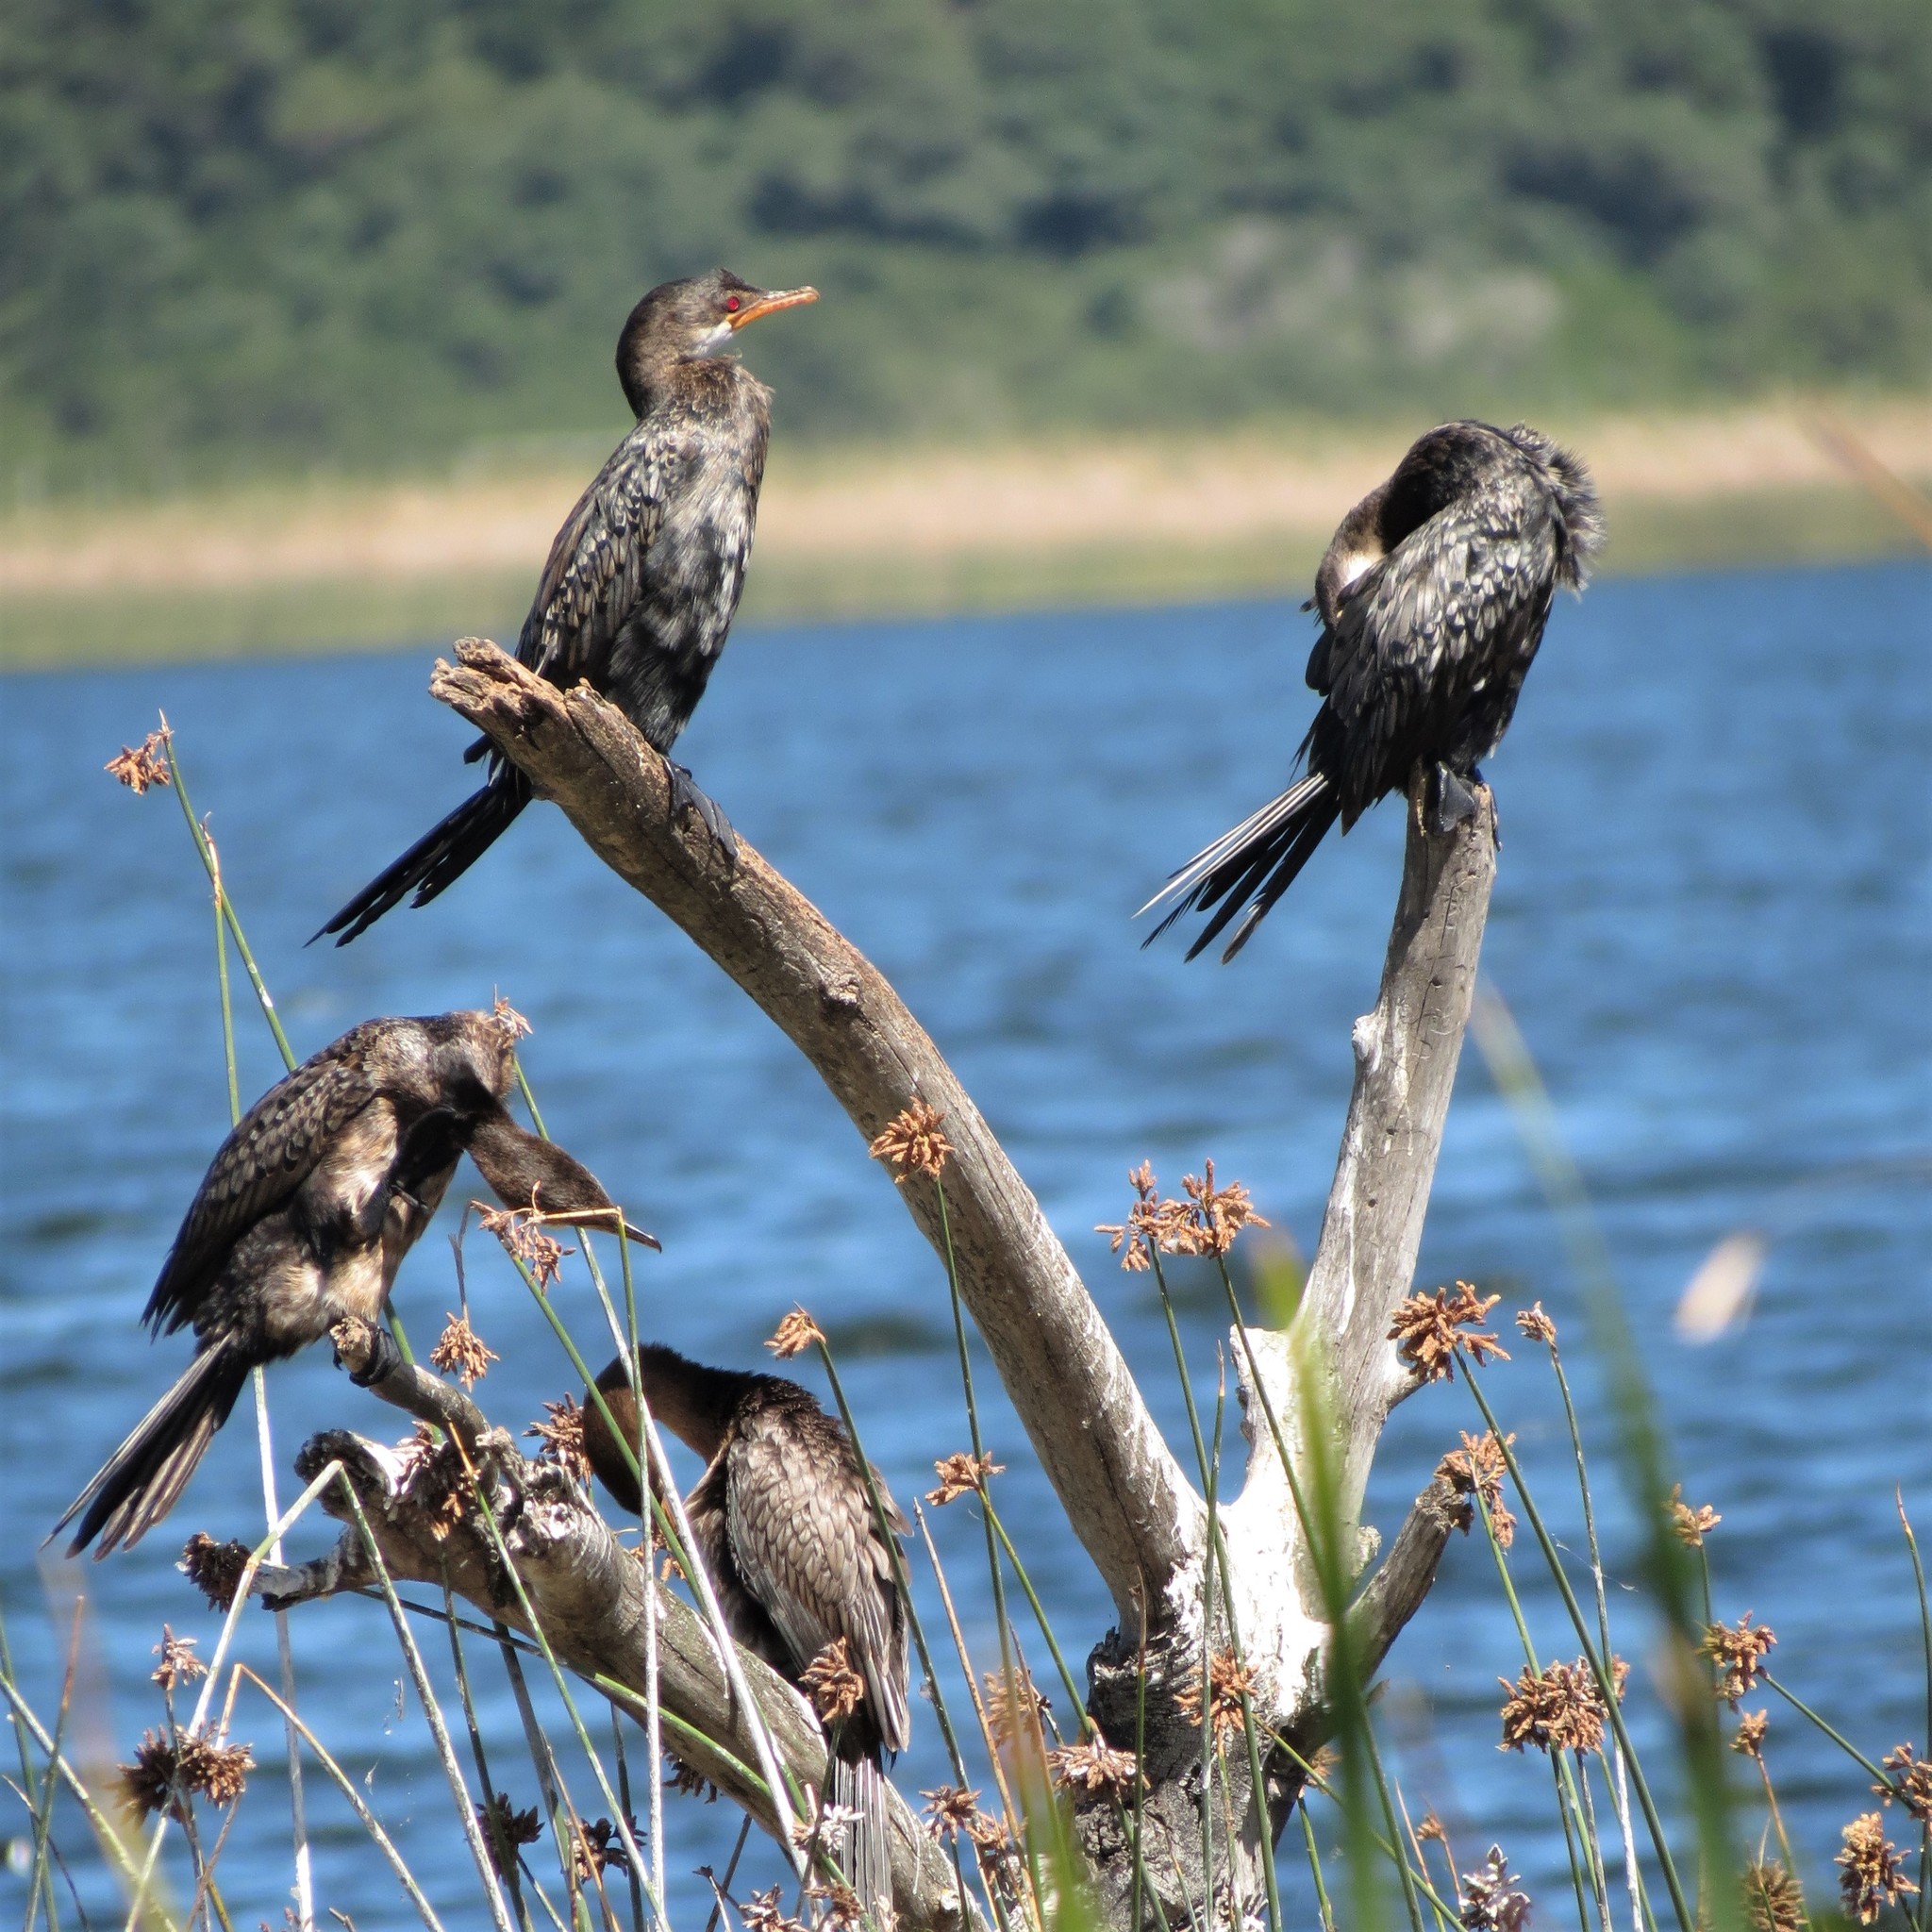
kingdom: Animalia
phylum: Chordata
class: Aves
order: Suliformes
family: Phalacrocoracidae
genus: Microcarbo
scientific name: Microcarbo africanus
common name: Long-tailed cormorant
